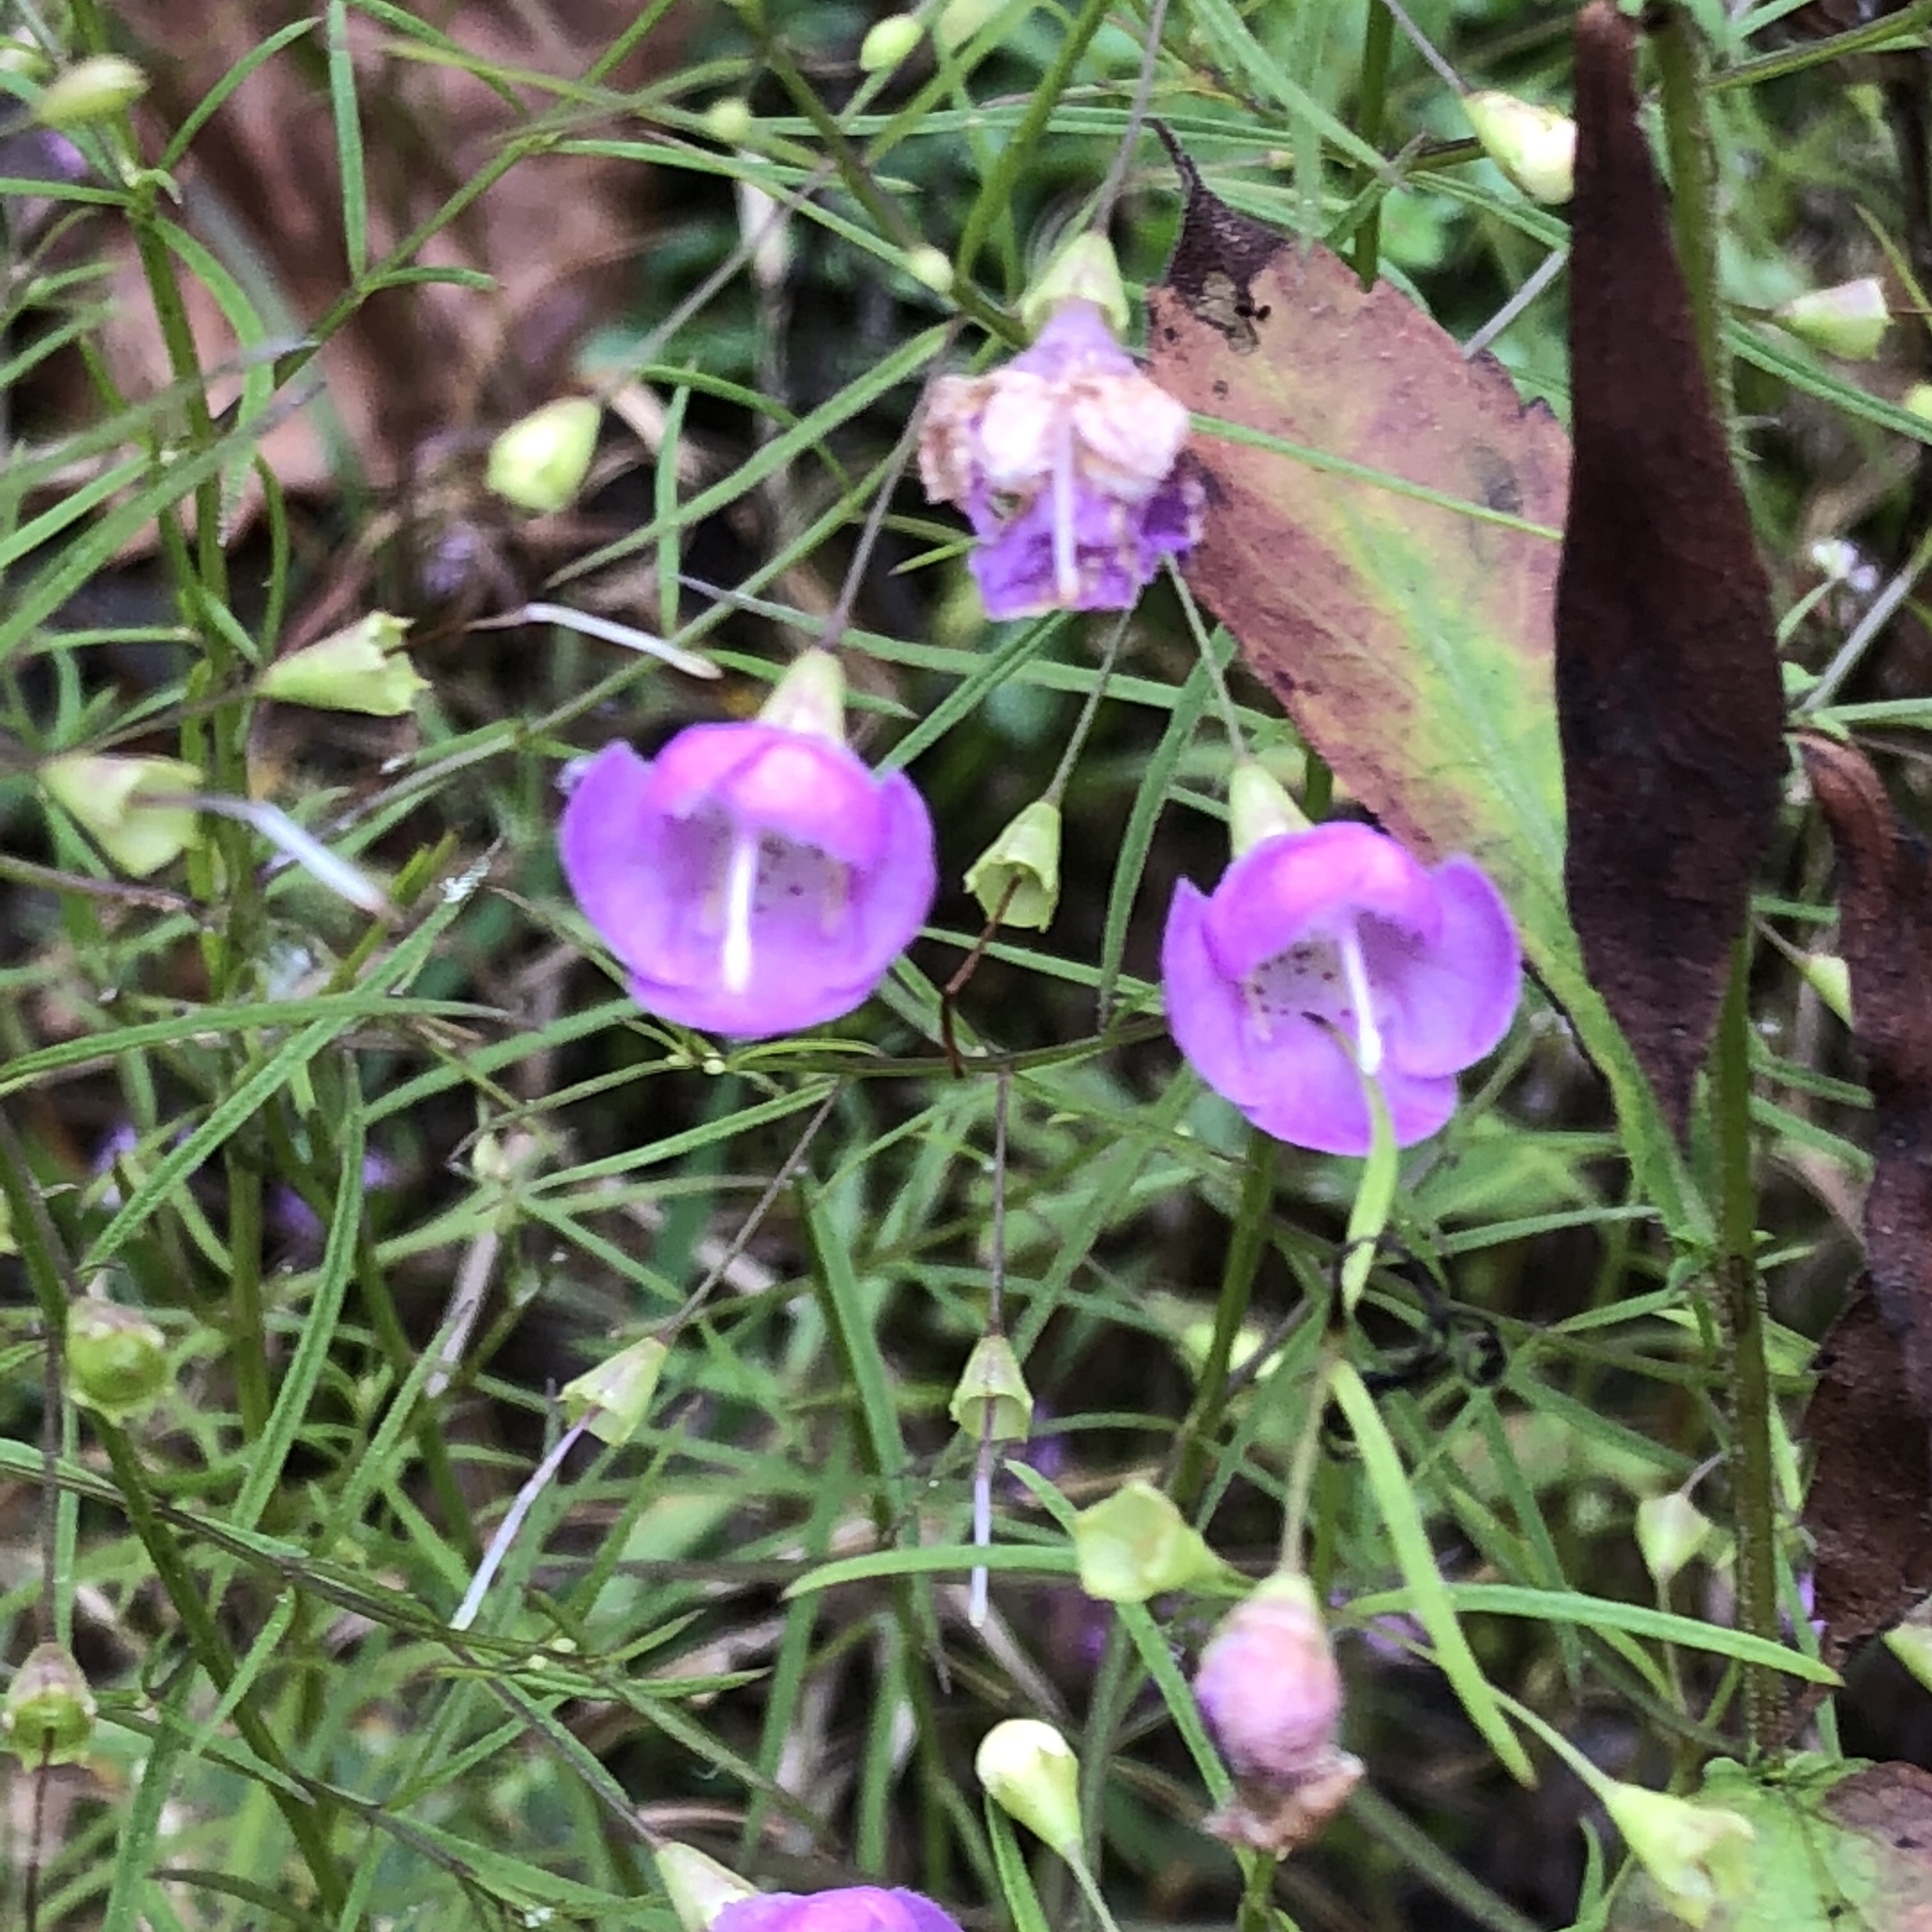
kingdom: Plantae
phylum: Tracheophyta
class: Magnoliopsida
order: Lamiales
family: Orobanchaceae
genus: Agalinis
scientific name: Agalinis tenuifolia
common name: Slender agalinis
